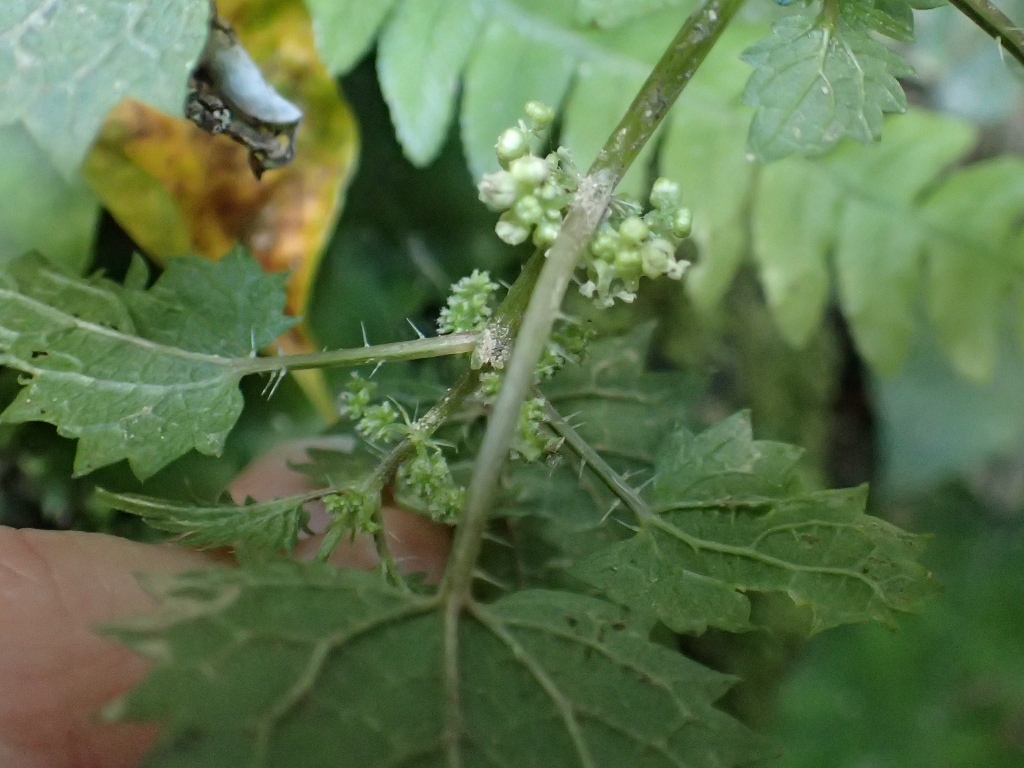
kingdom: Plantae
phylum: Tracheophyta
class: Magnoliopsida
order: Rosales
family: Urticaceae
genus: Urtica
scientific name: Urtica sykesii
